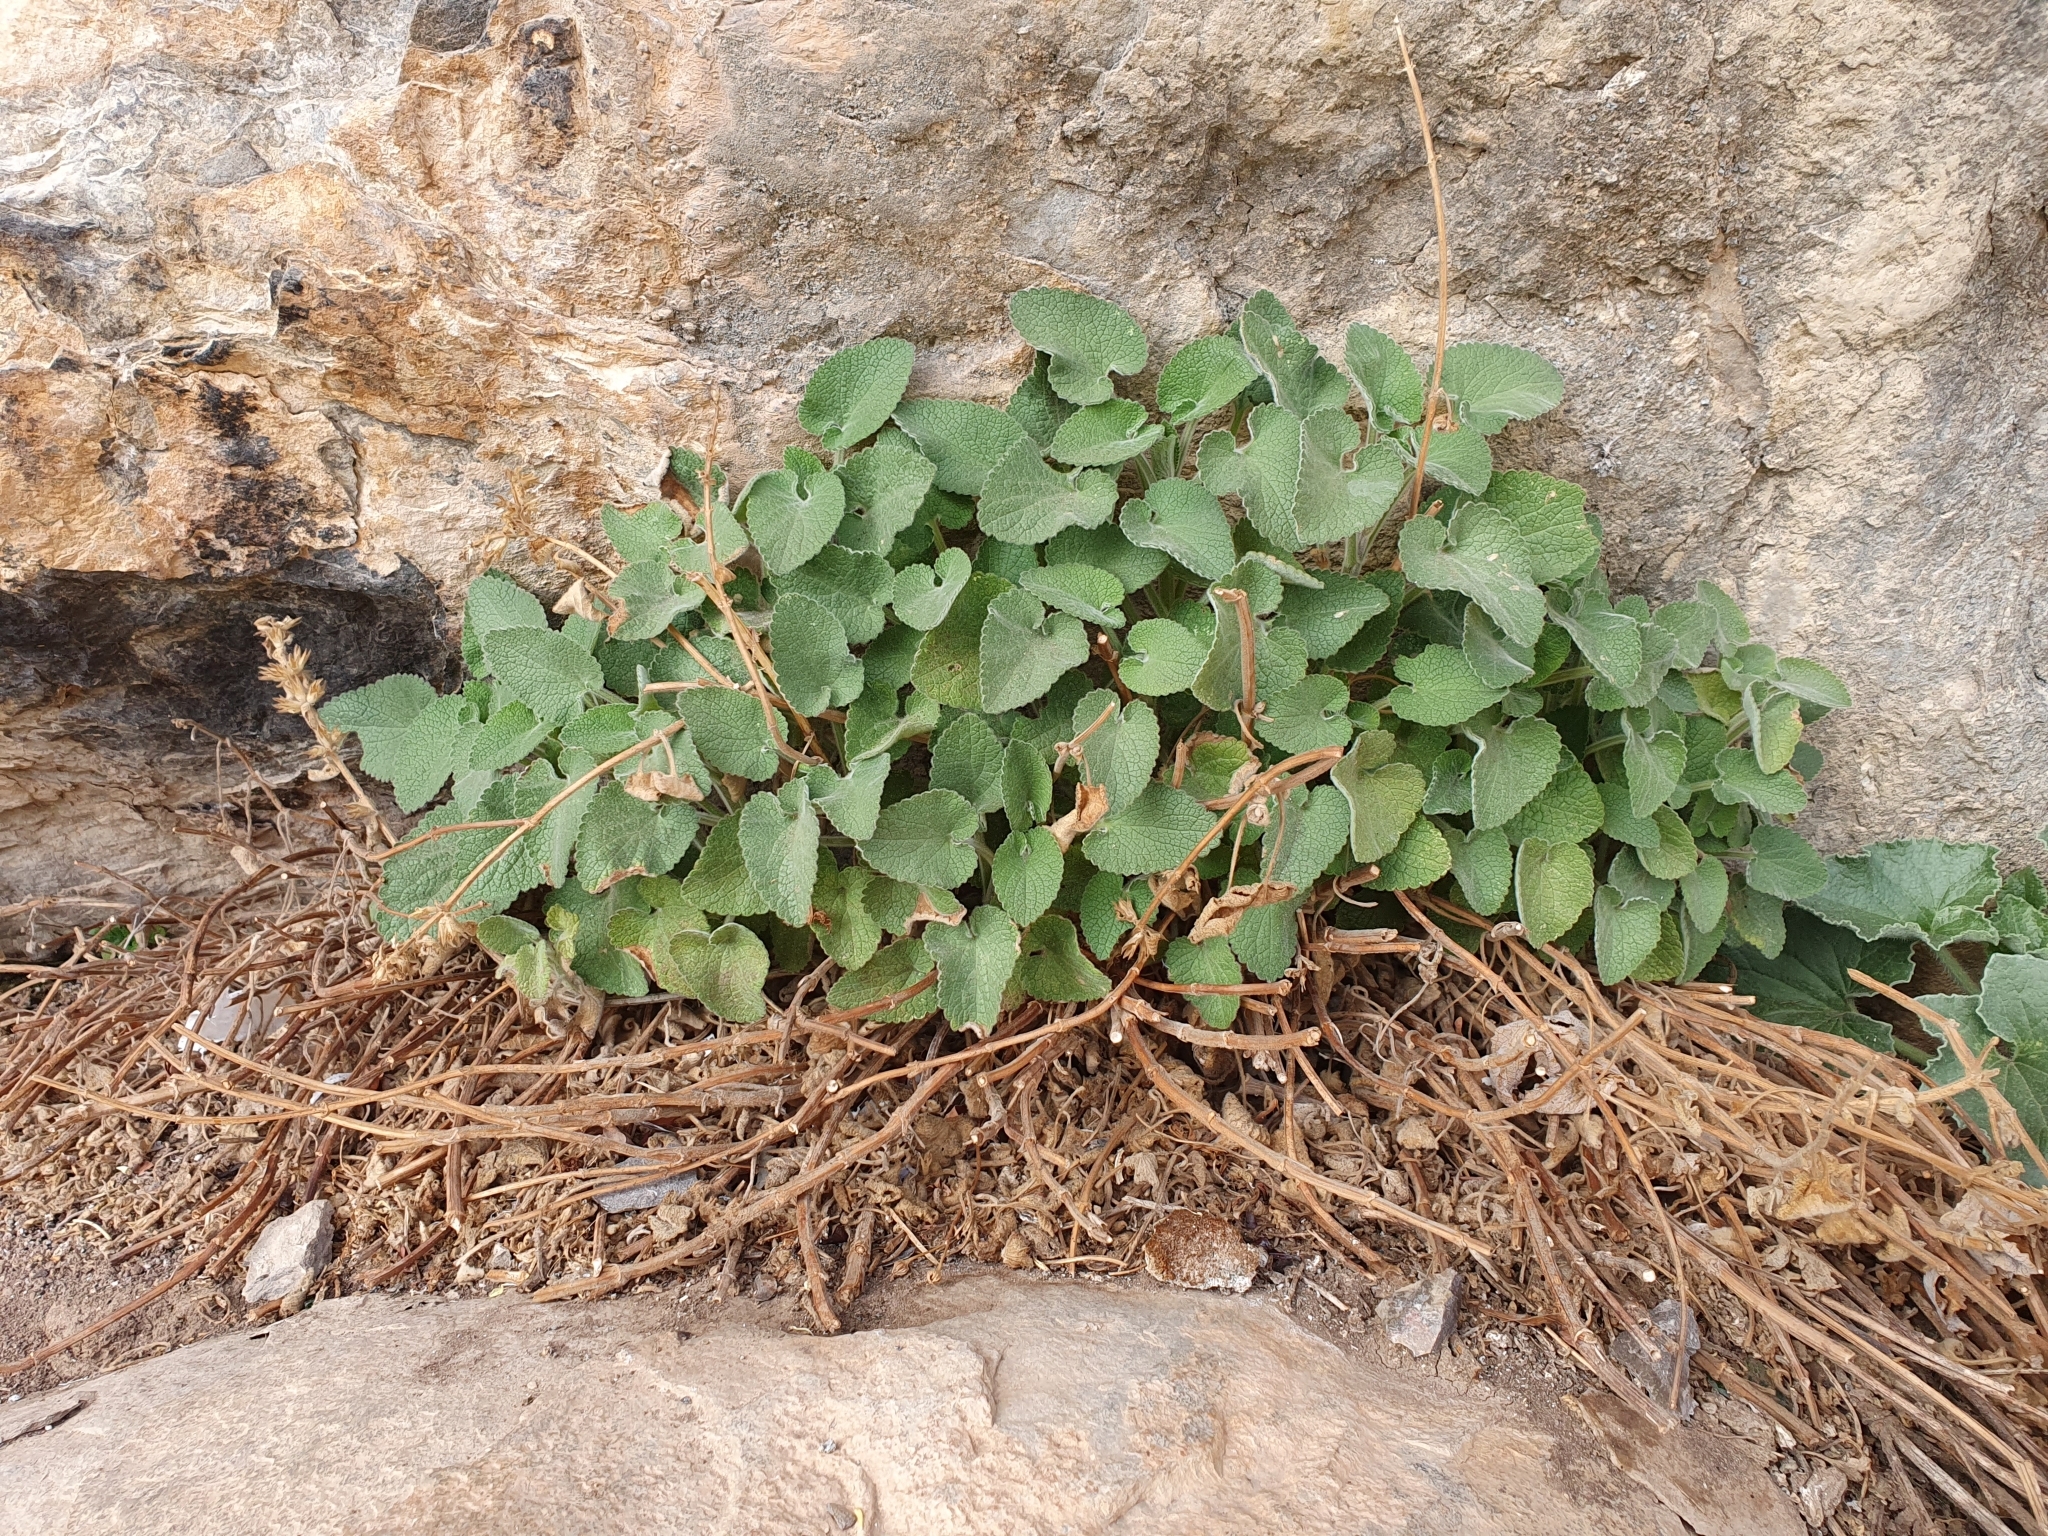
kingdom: Plantae
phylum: Tracheophyta
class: Magnoliopsida
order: Lamiales
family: Lamiaceae
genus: Stachys
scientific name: Stachys circinata
